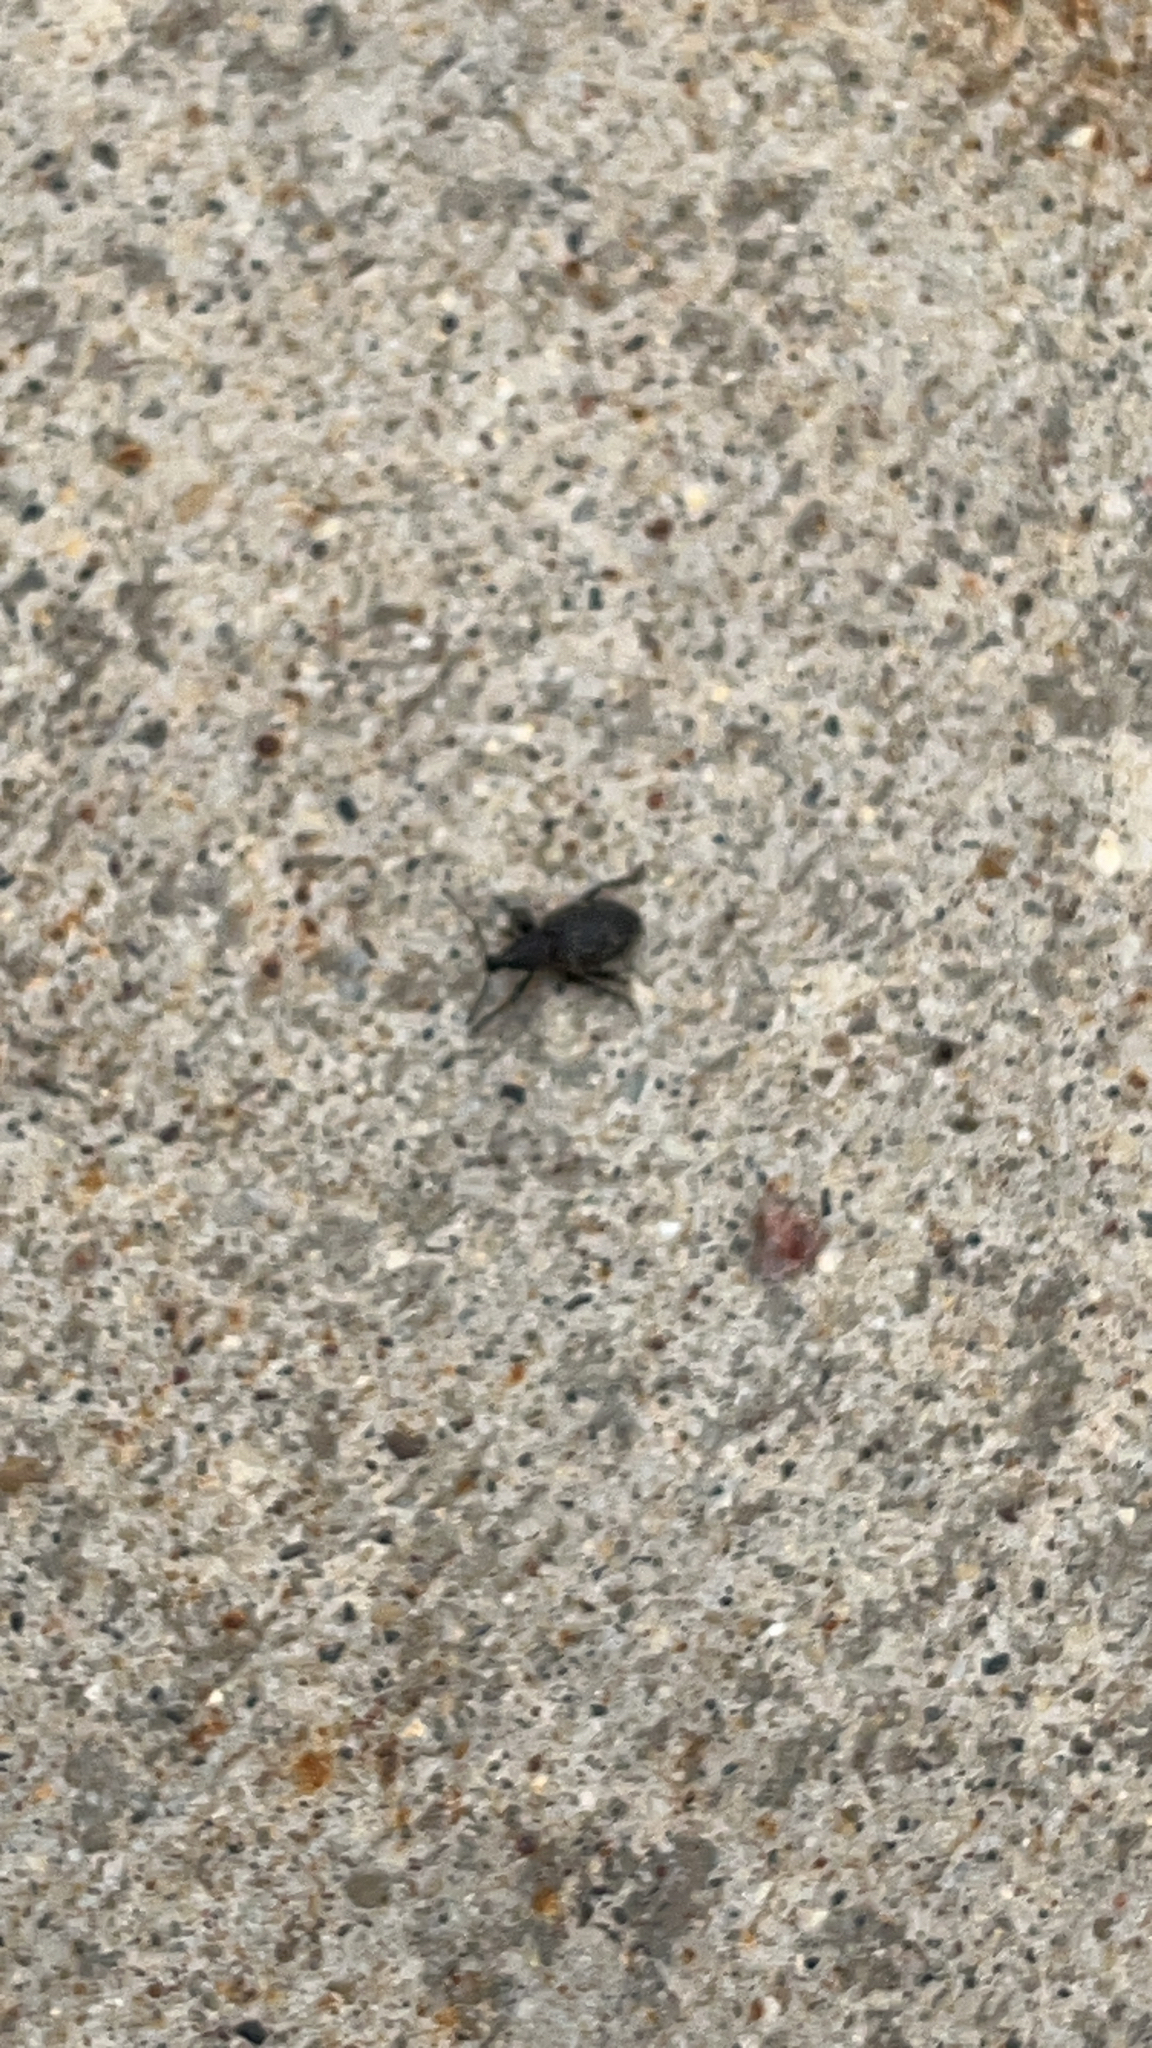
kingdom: Animalia
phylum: Arthropoda
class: Insecta
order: Coleoptera
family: Curculionidae
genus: Otiorhynchus
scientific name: Otiorhynchus sulcatus
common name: Black vine weevil
